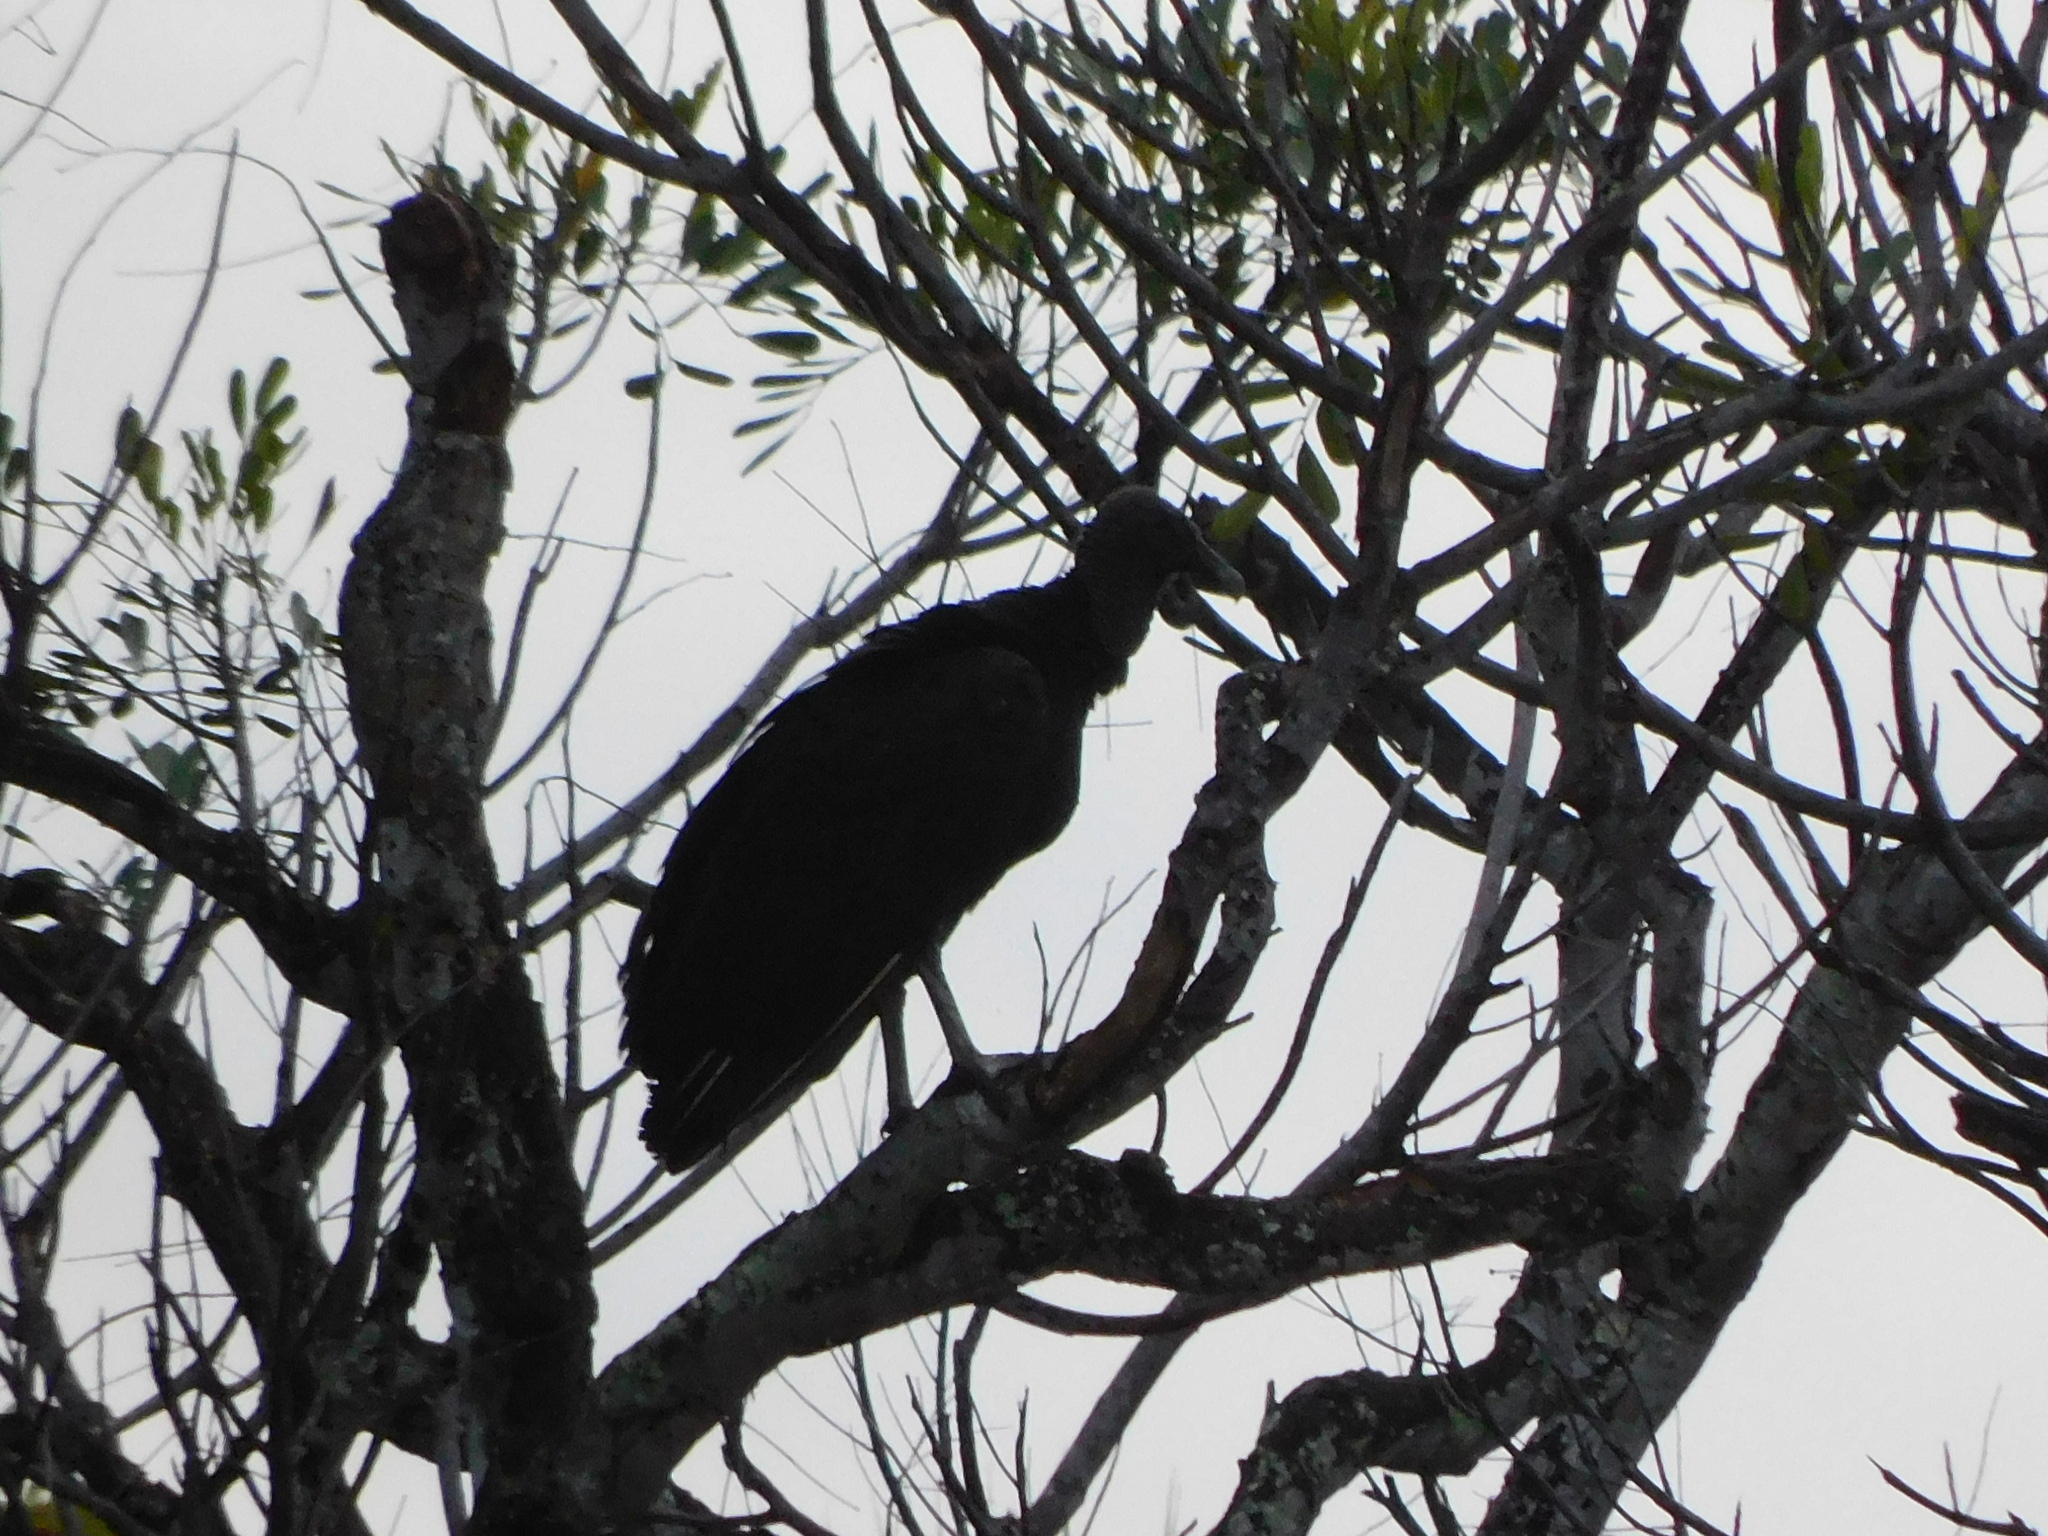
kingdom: Animalia
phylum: Chordata
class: Aves
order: Accipitriformes
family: Cathartidae
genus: Coragyps
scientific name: Coragyps atratus
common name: Black vulture
